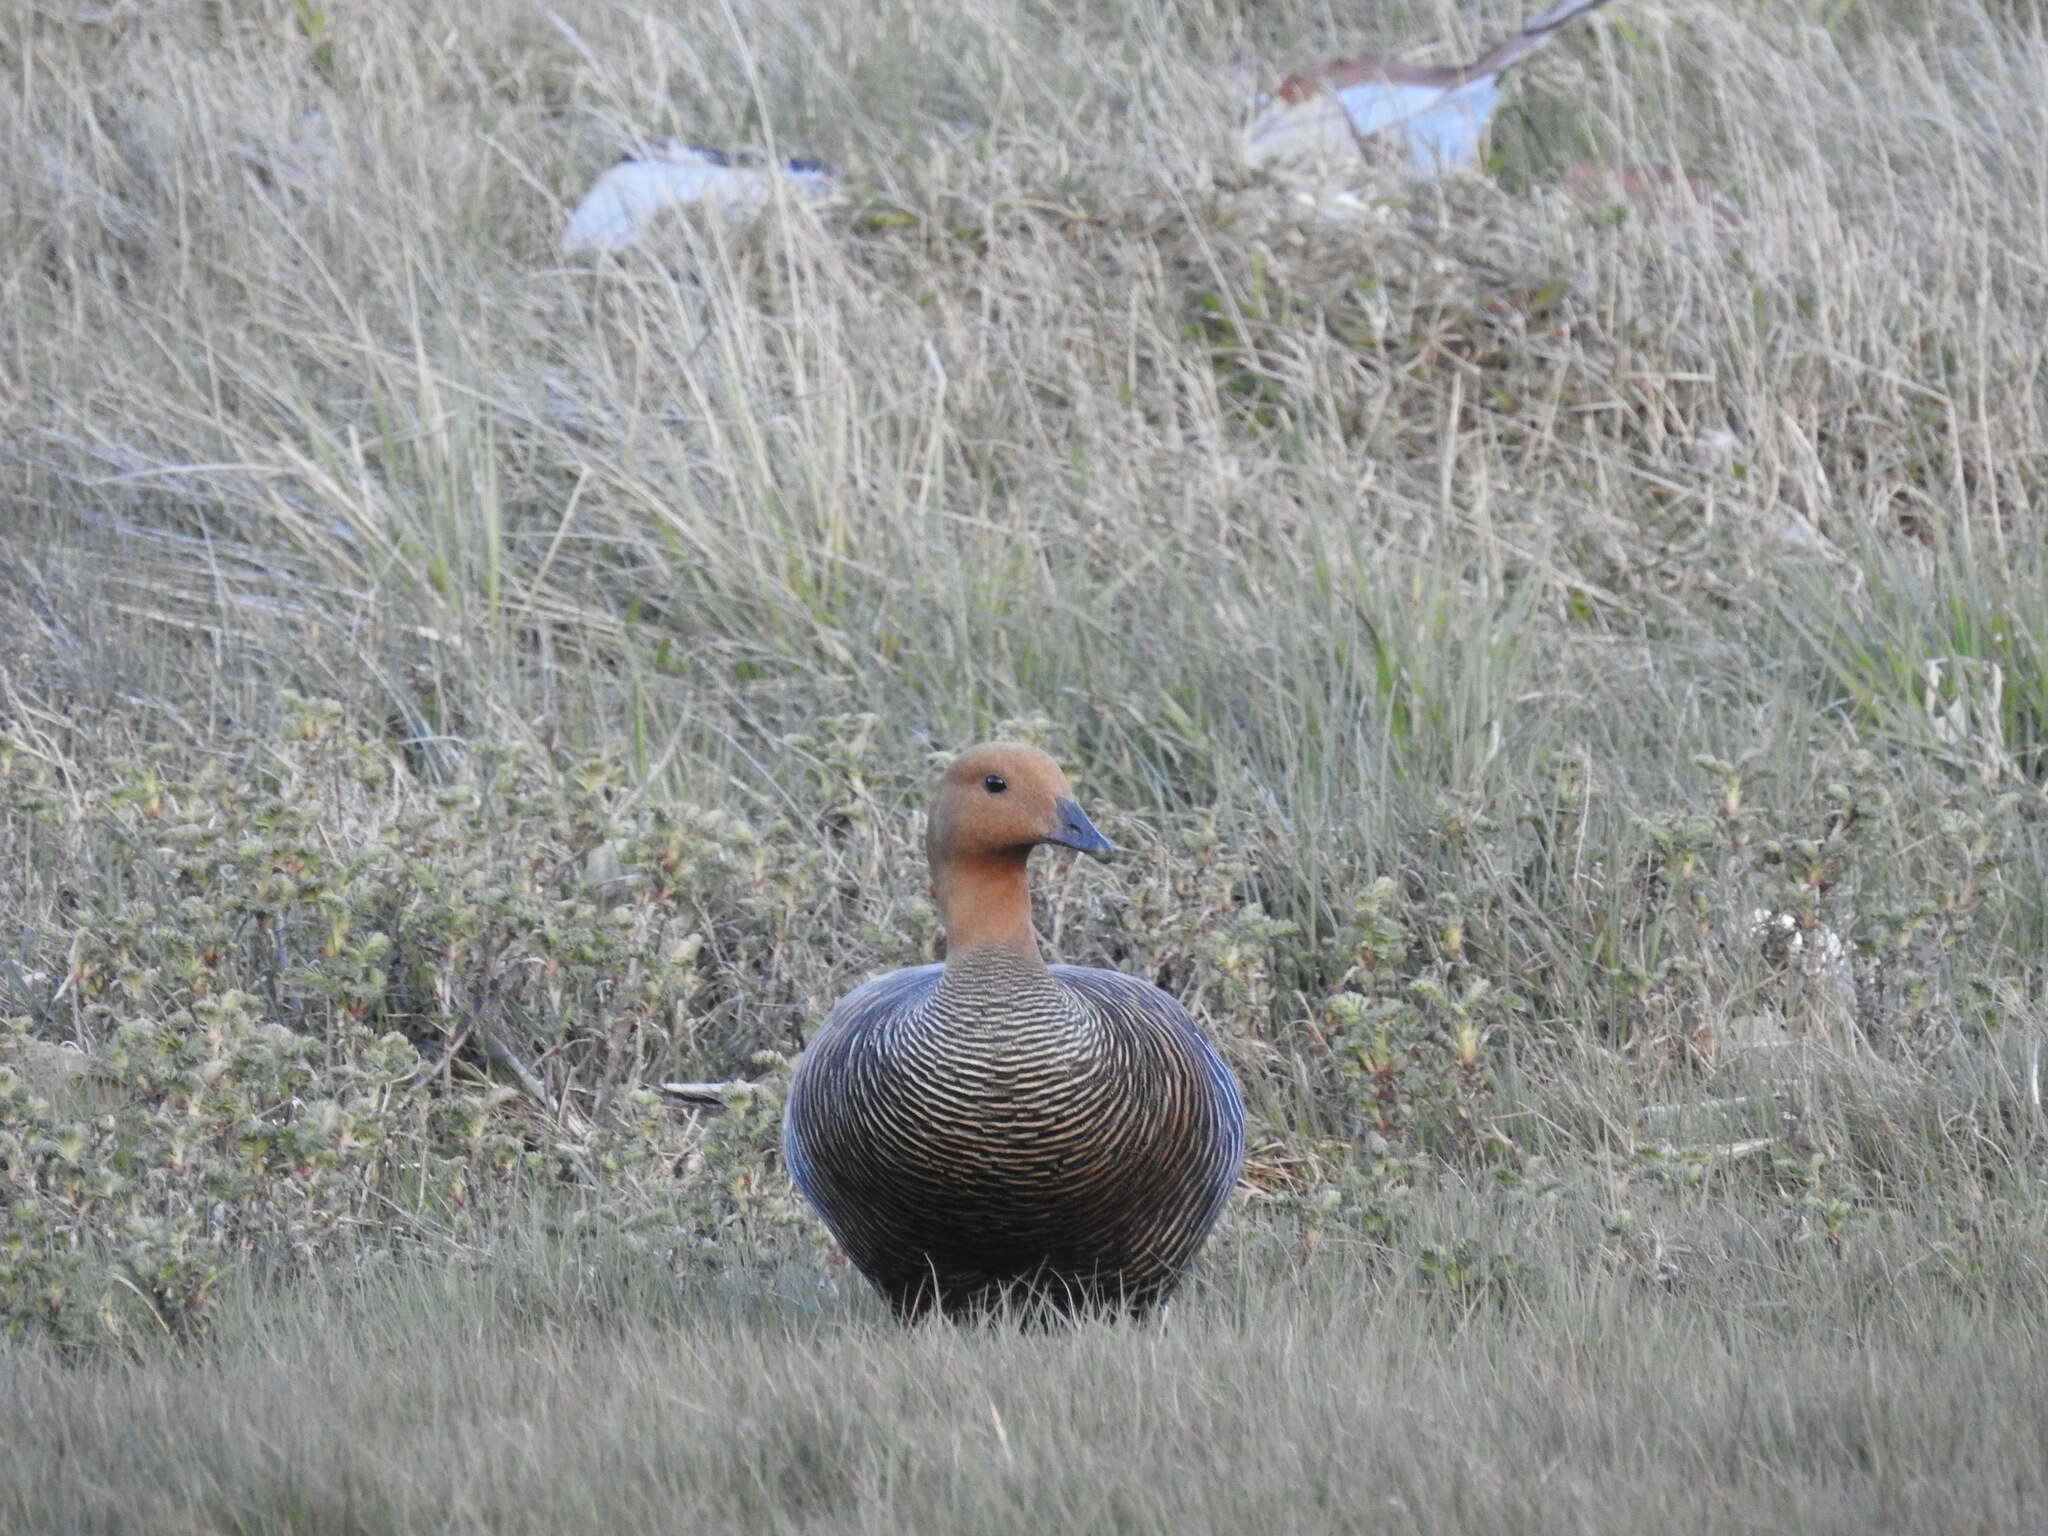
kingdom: Animalia
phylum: Chordata
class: Aves
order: Anseriformes
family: Anatidae
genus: Chloephaga
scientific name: Chloephaga picta
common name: Upland goose
